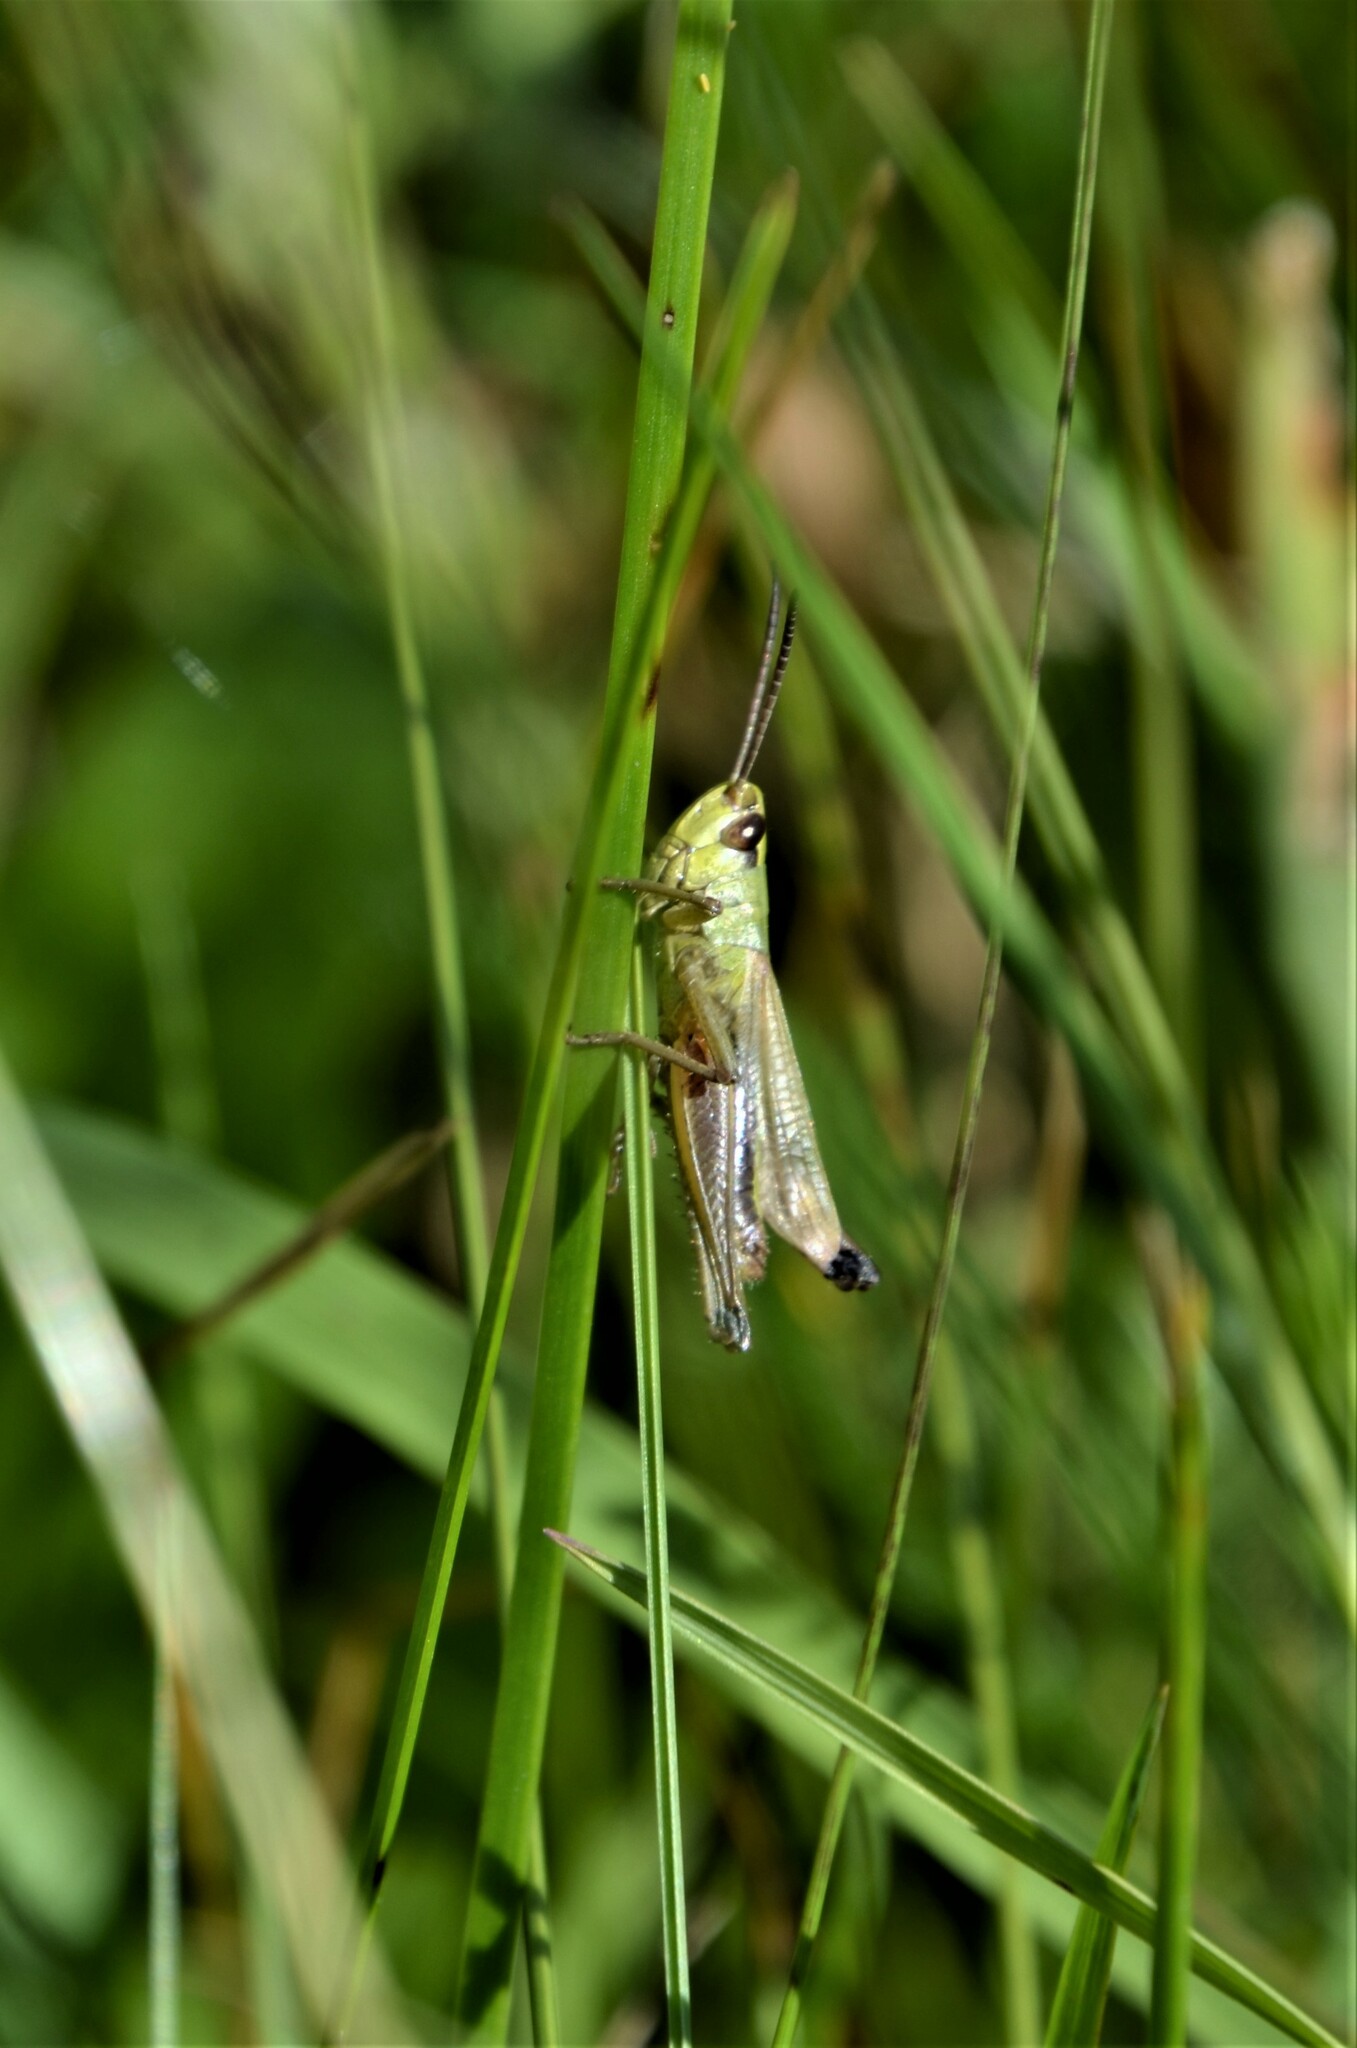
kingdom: Animalia
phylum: Arthropoda
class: Insecta
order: Orthoptera
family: Acrididae
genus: Pseudochorthippus
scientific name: Pseudochorthippus parallelus
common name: Meadow grasshopper
